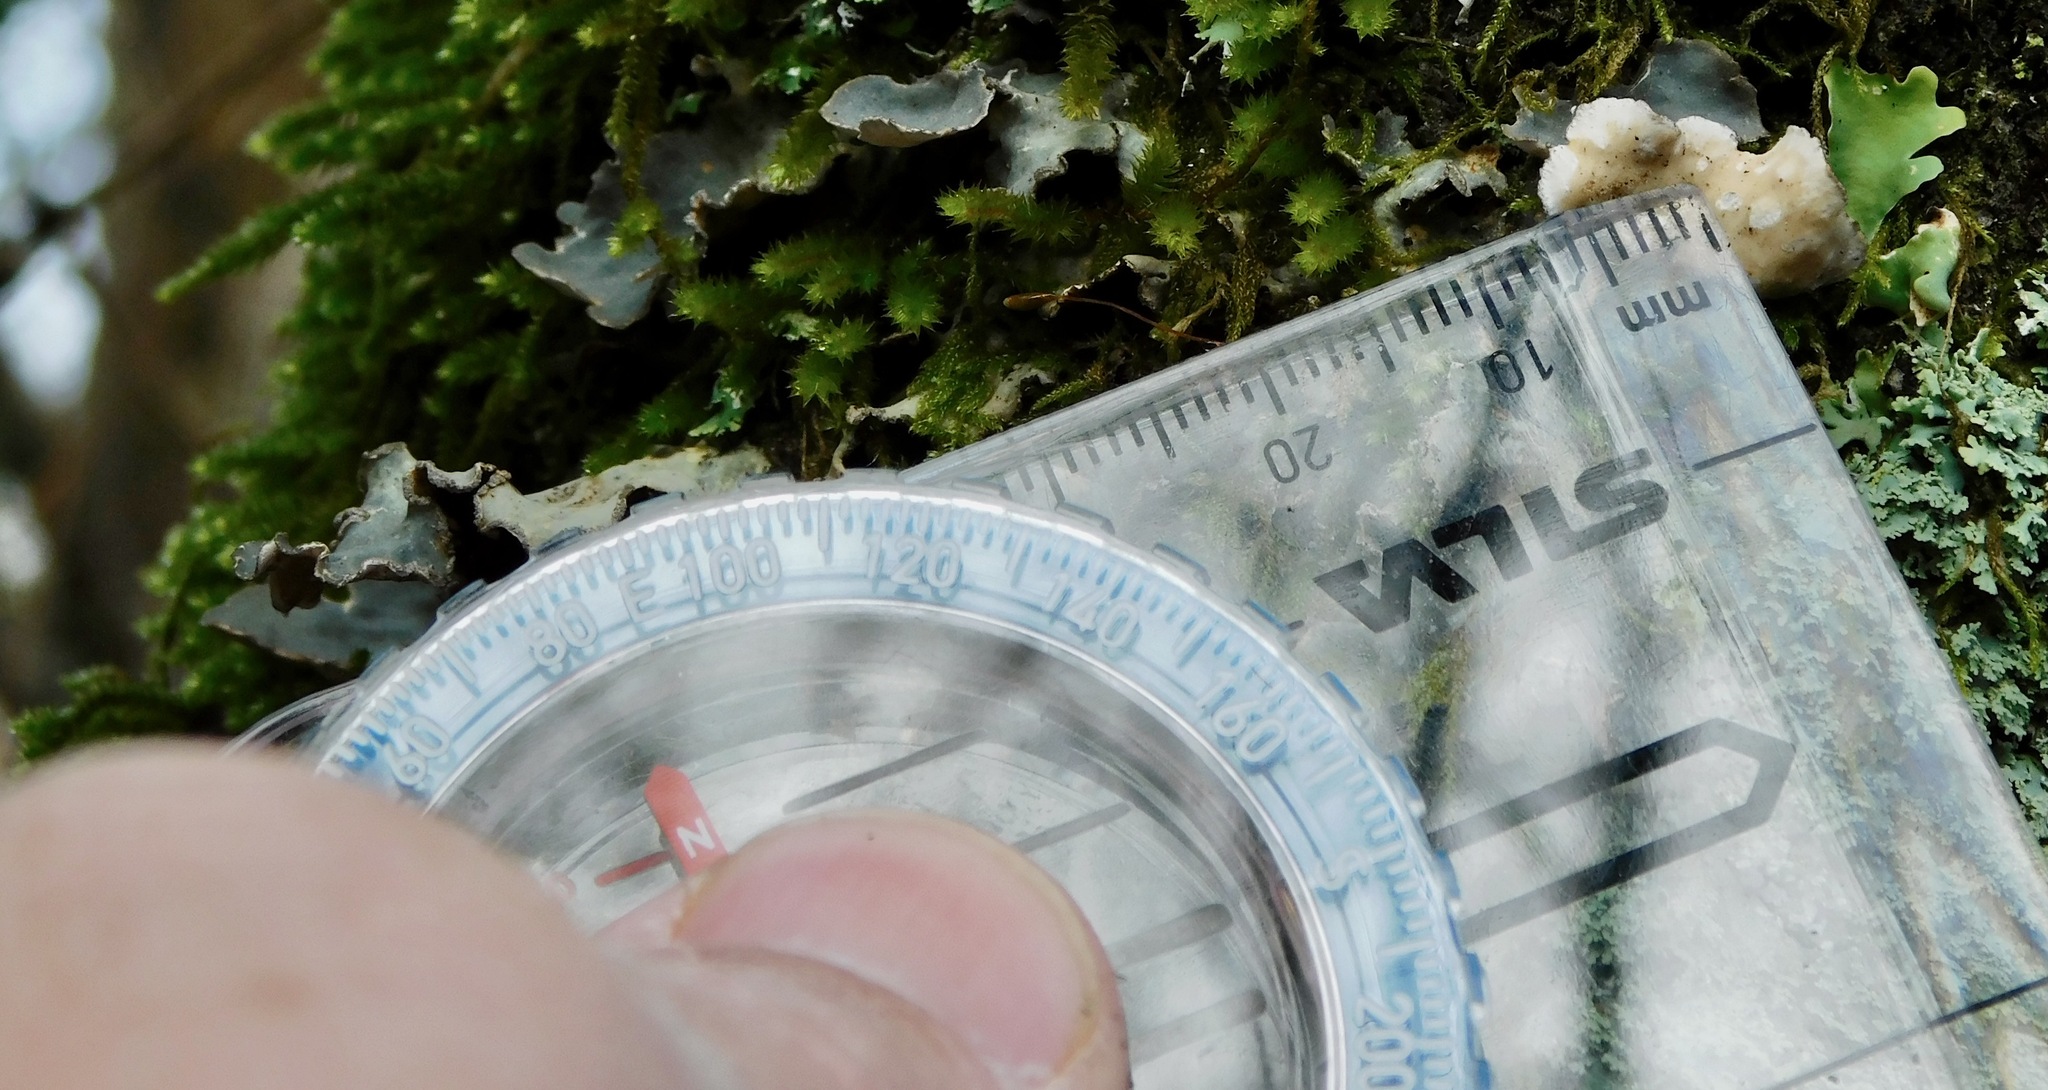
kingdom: Fungi
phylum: Ascomycota
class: Lecanoromycetes
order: Peltigerales
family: Lobariaceae
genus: Lobarina
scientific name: Lobarina scrobiculata
